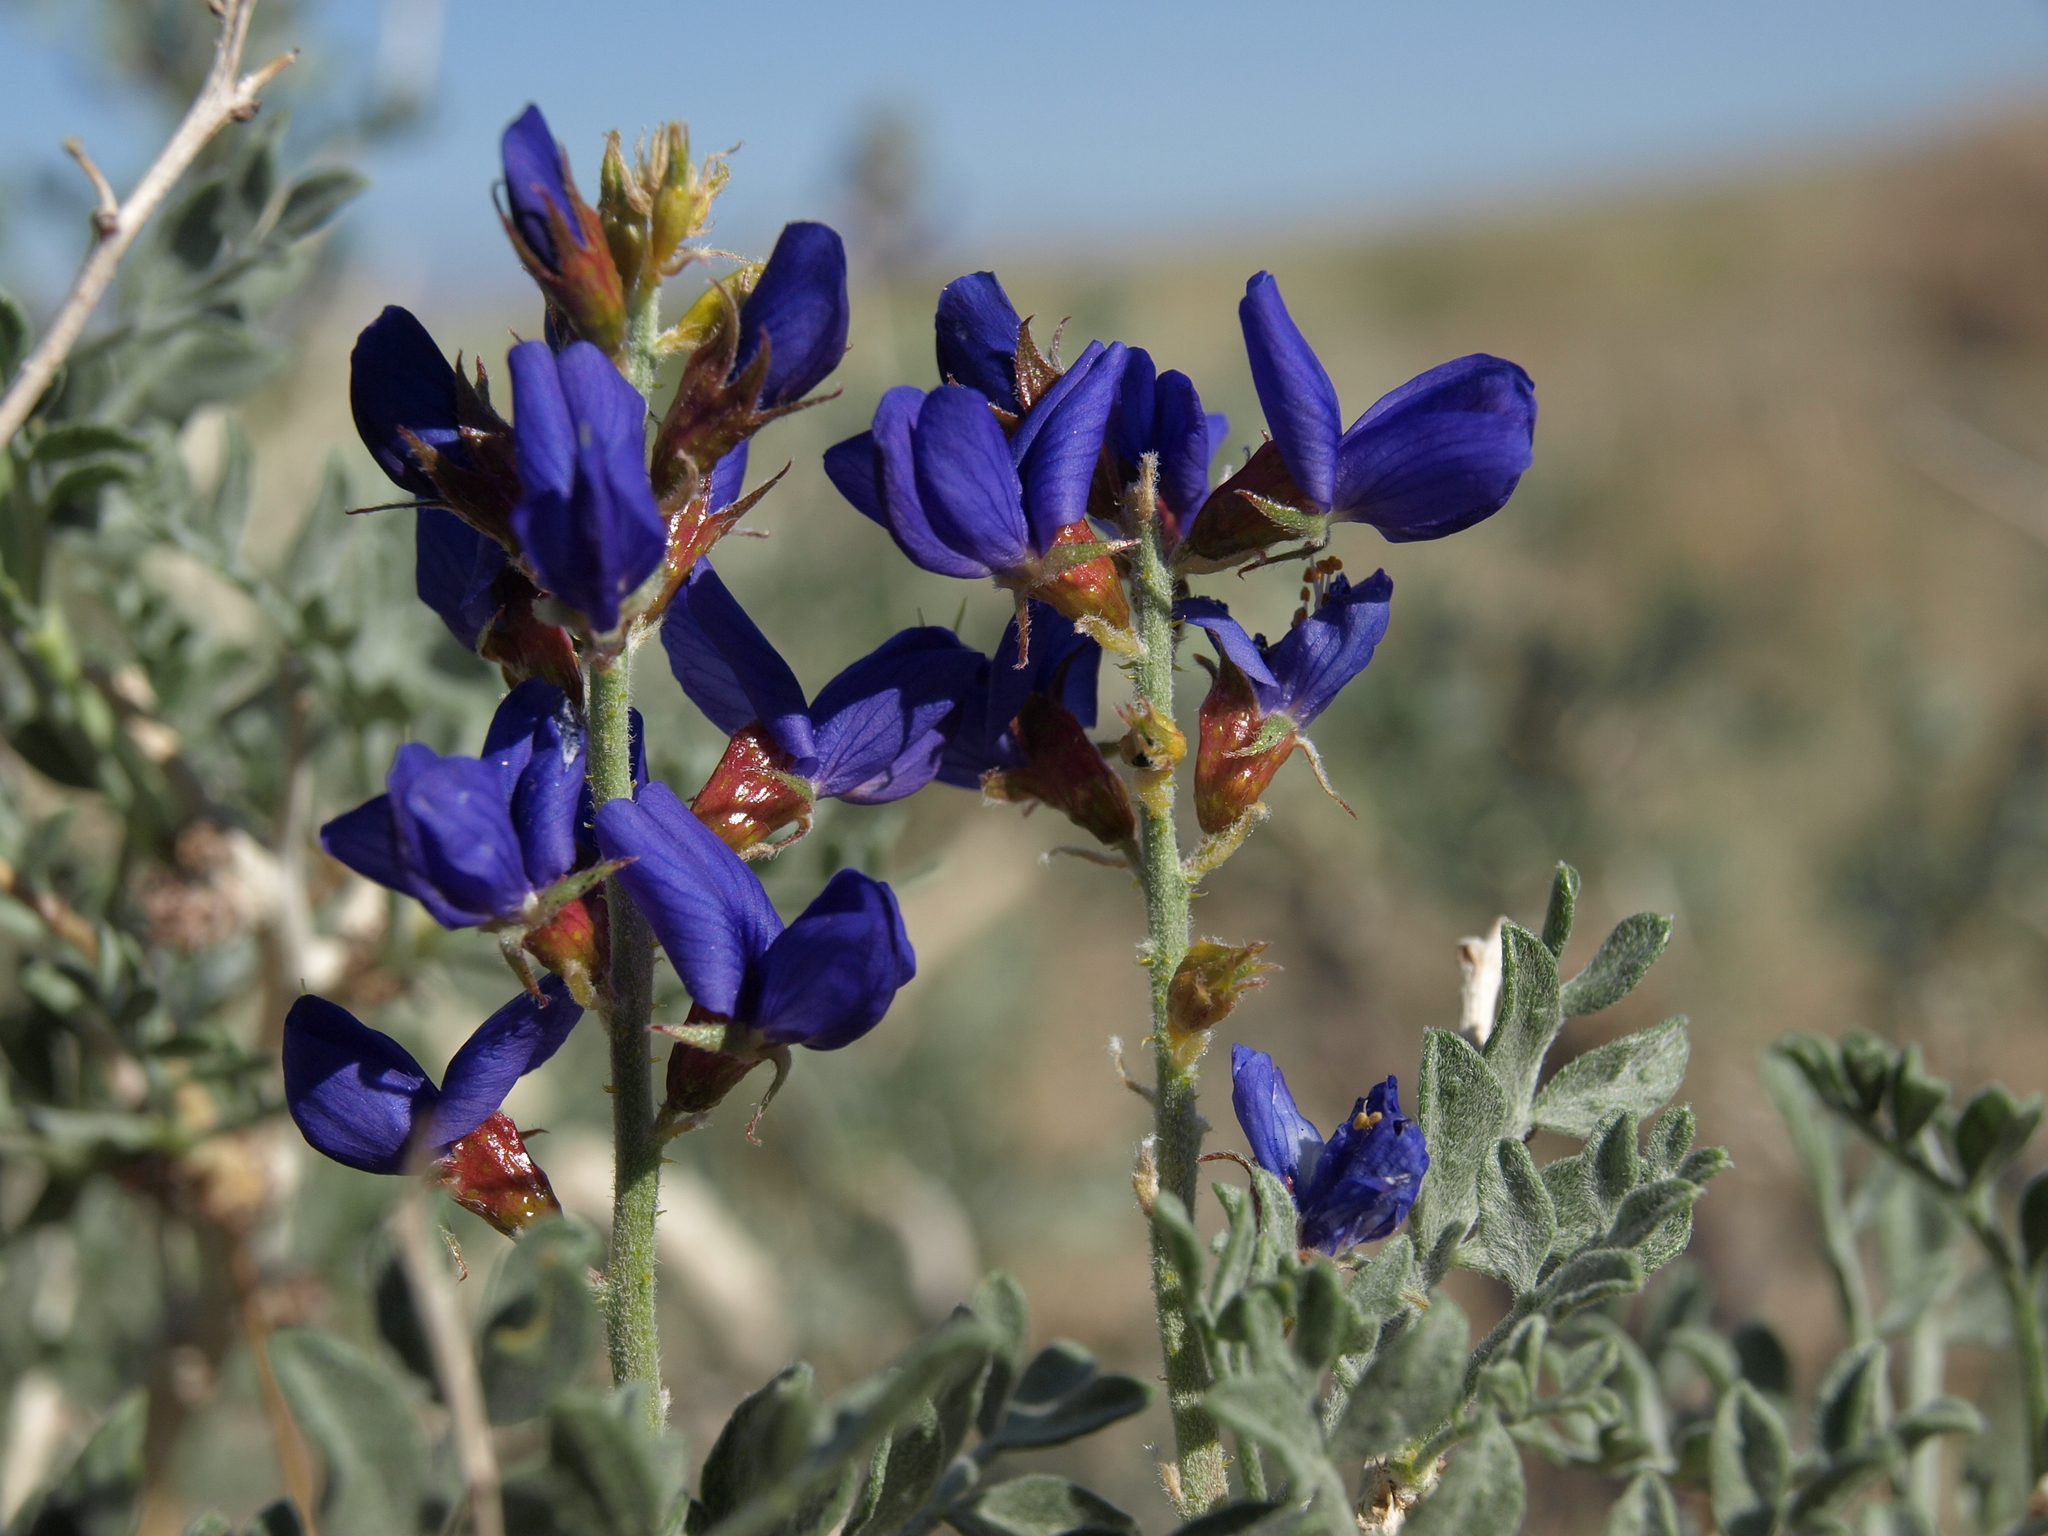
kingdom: Plantae
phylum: Tracheophyta
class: Magnoliopsida
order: Fabales
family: Fabaceae
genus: Psorothamnus
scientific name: Psorothamnus arborescens
